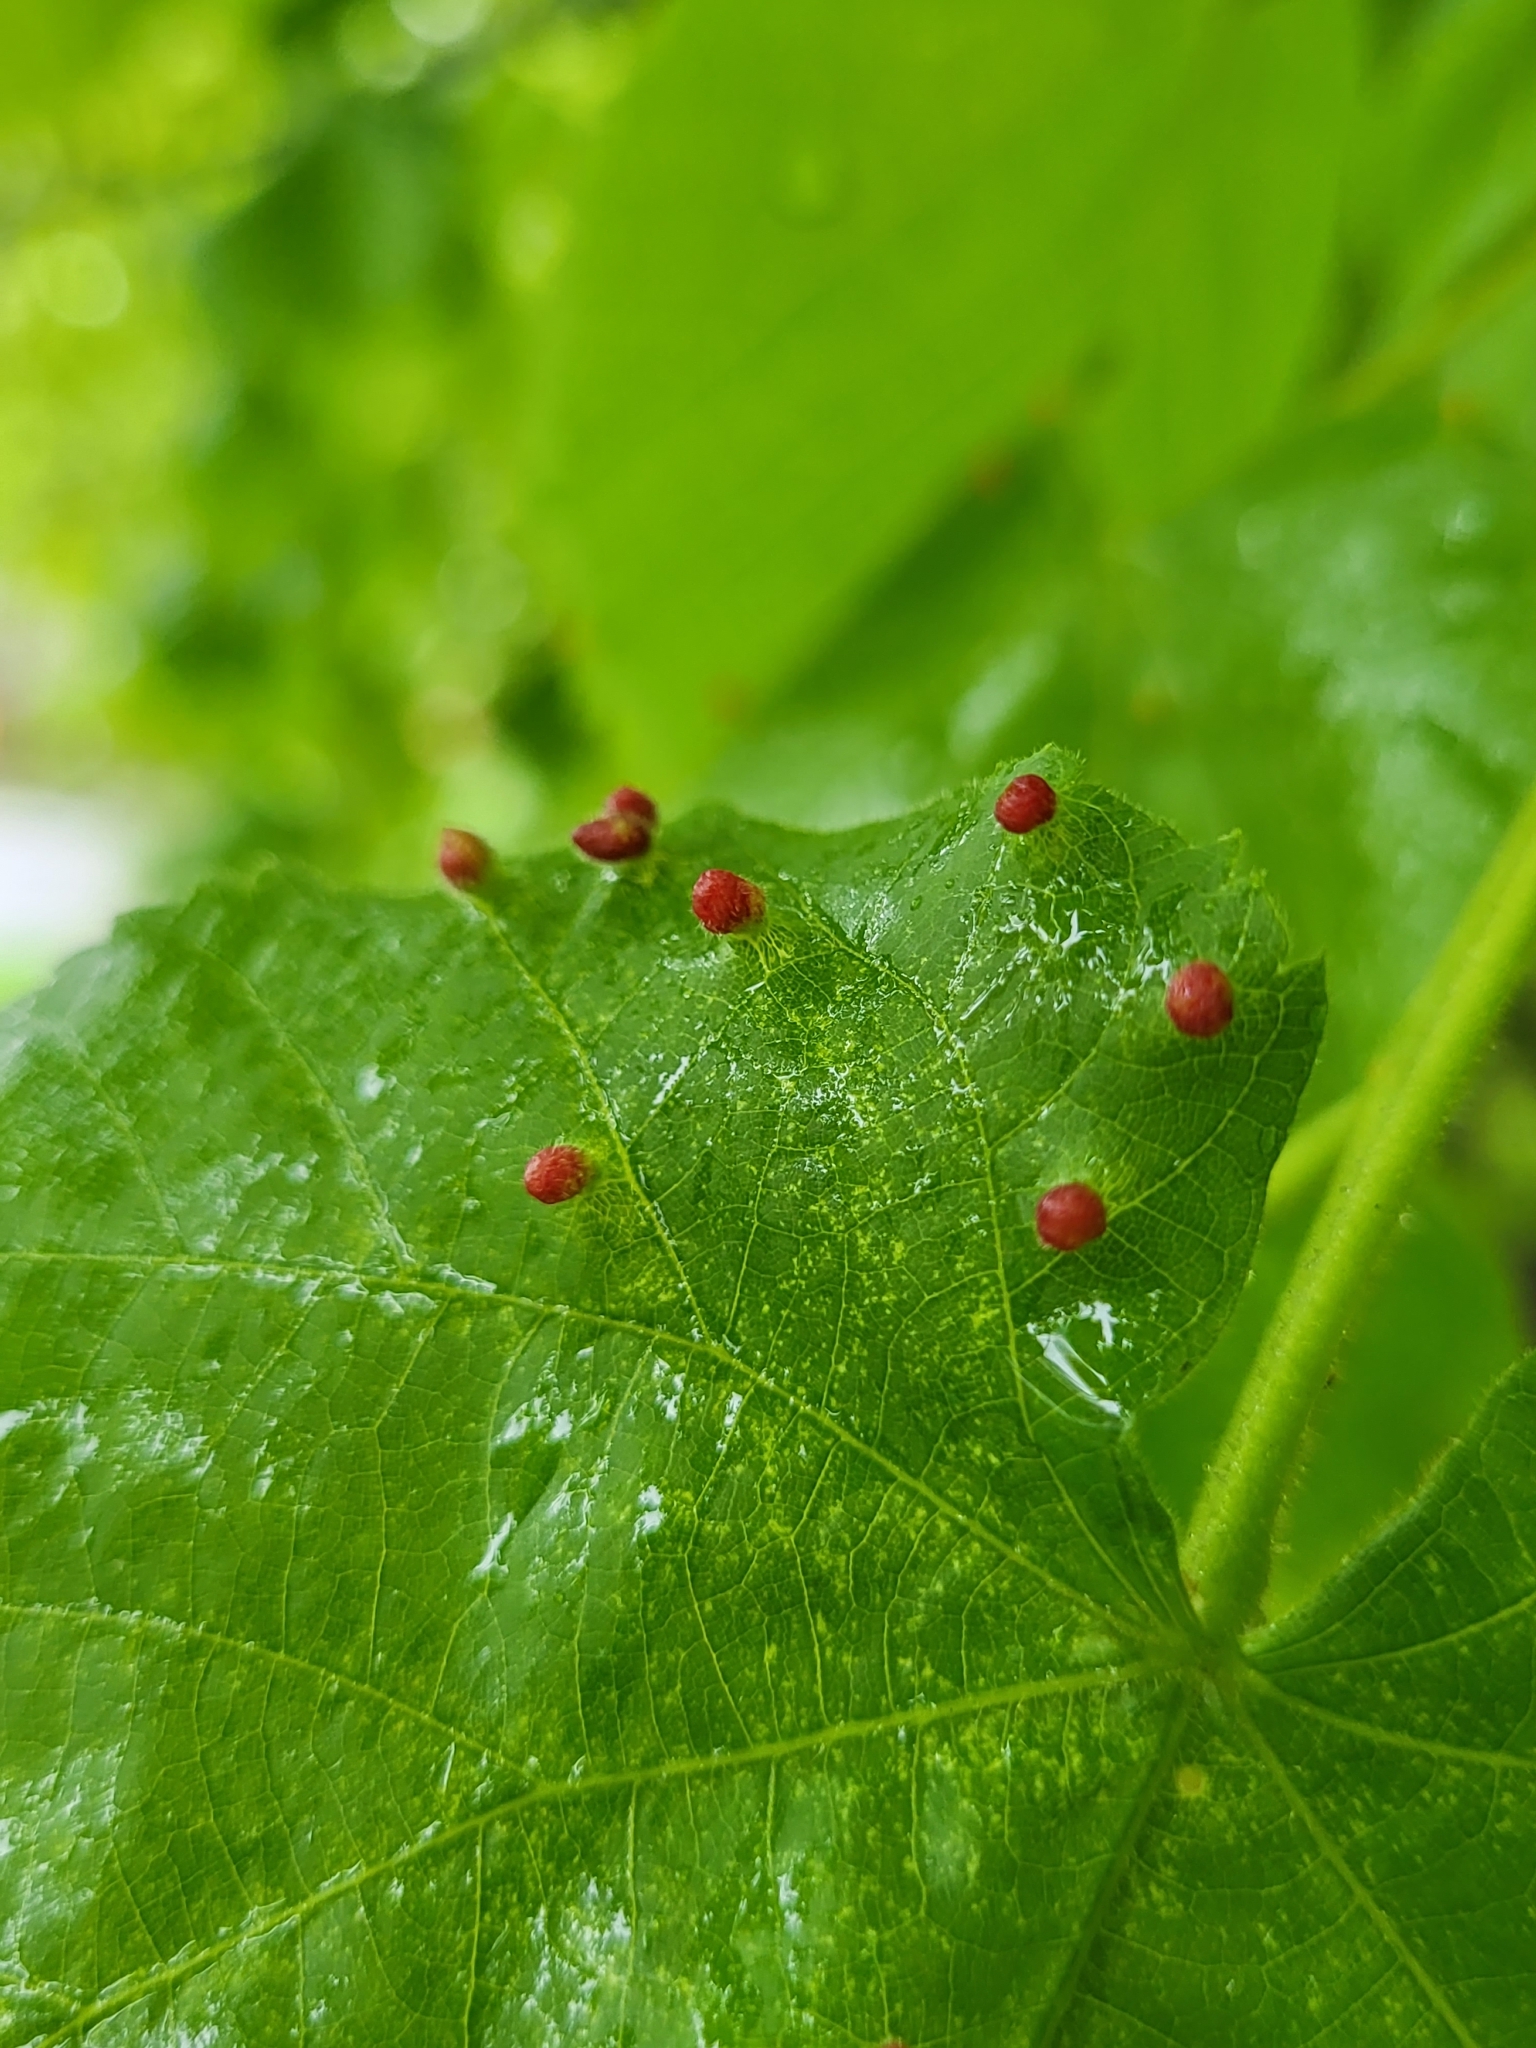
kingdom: Animalia
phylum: Arthropoda
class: Arachnida
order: Trombidiformes
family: Eriophyidae
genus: Eriophyes
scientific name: Eriophyes tiliae
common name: Red nail gall mite
